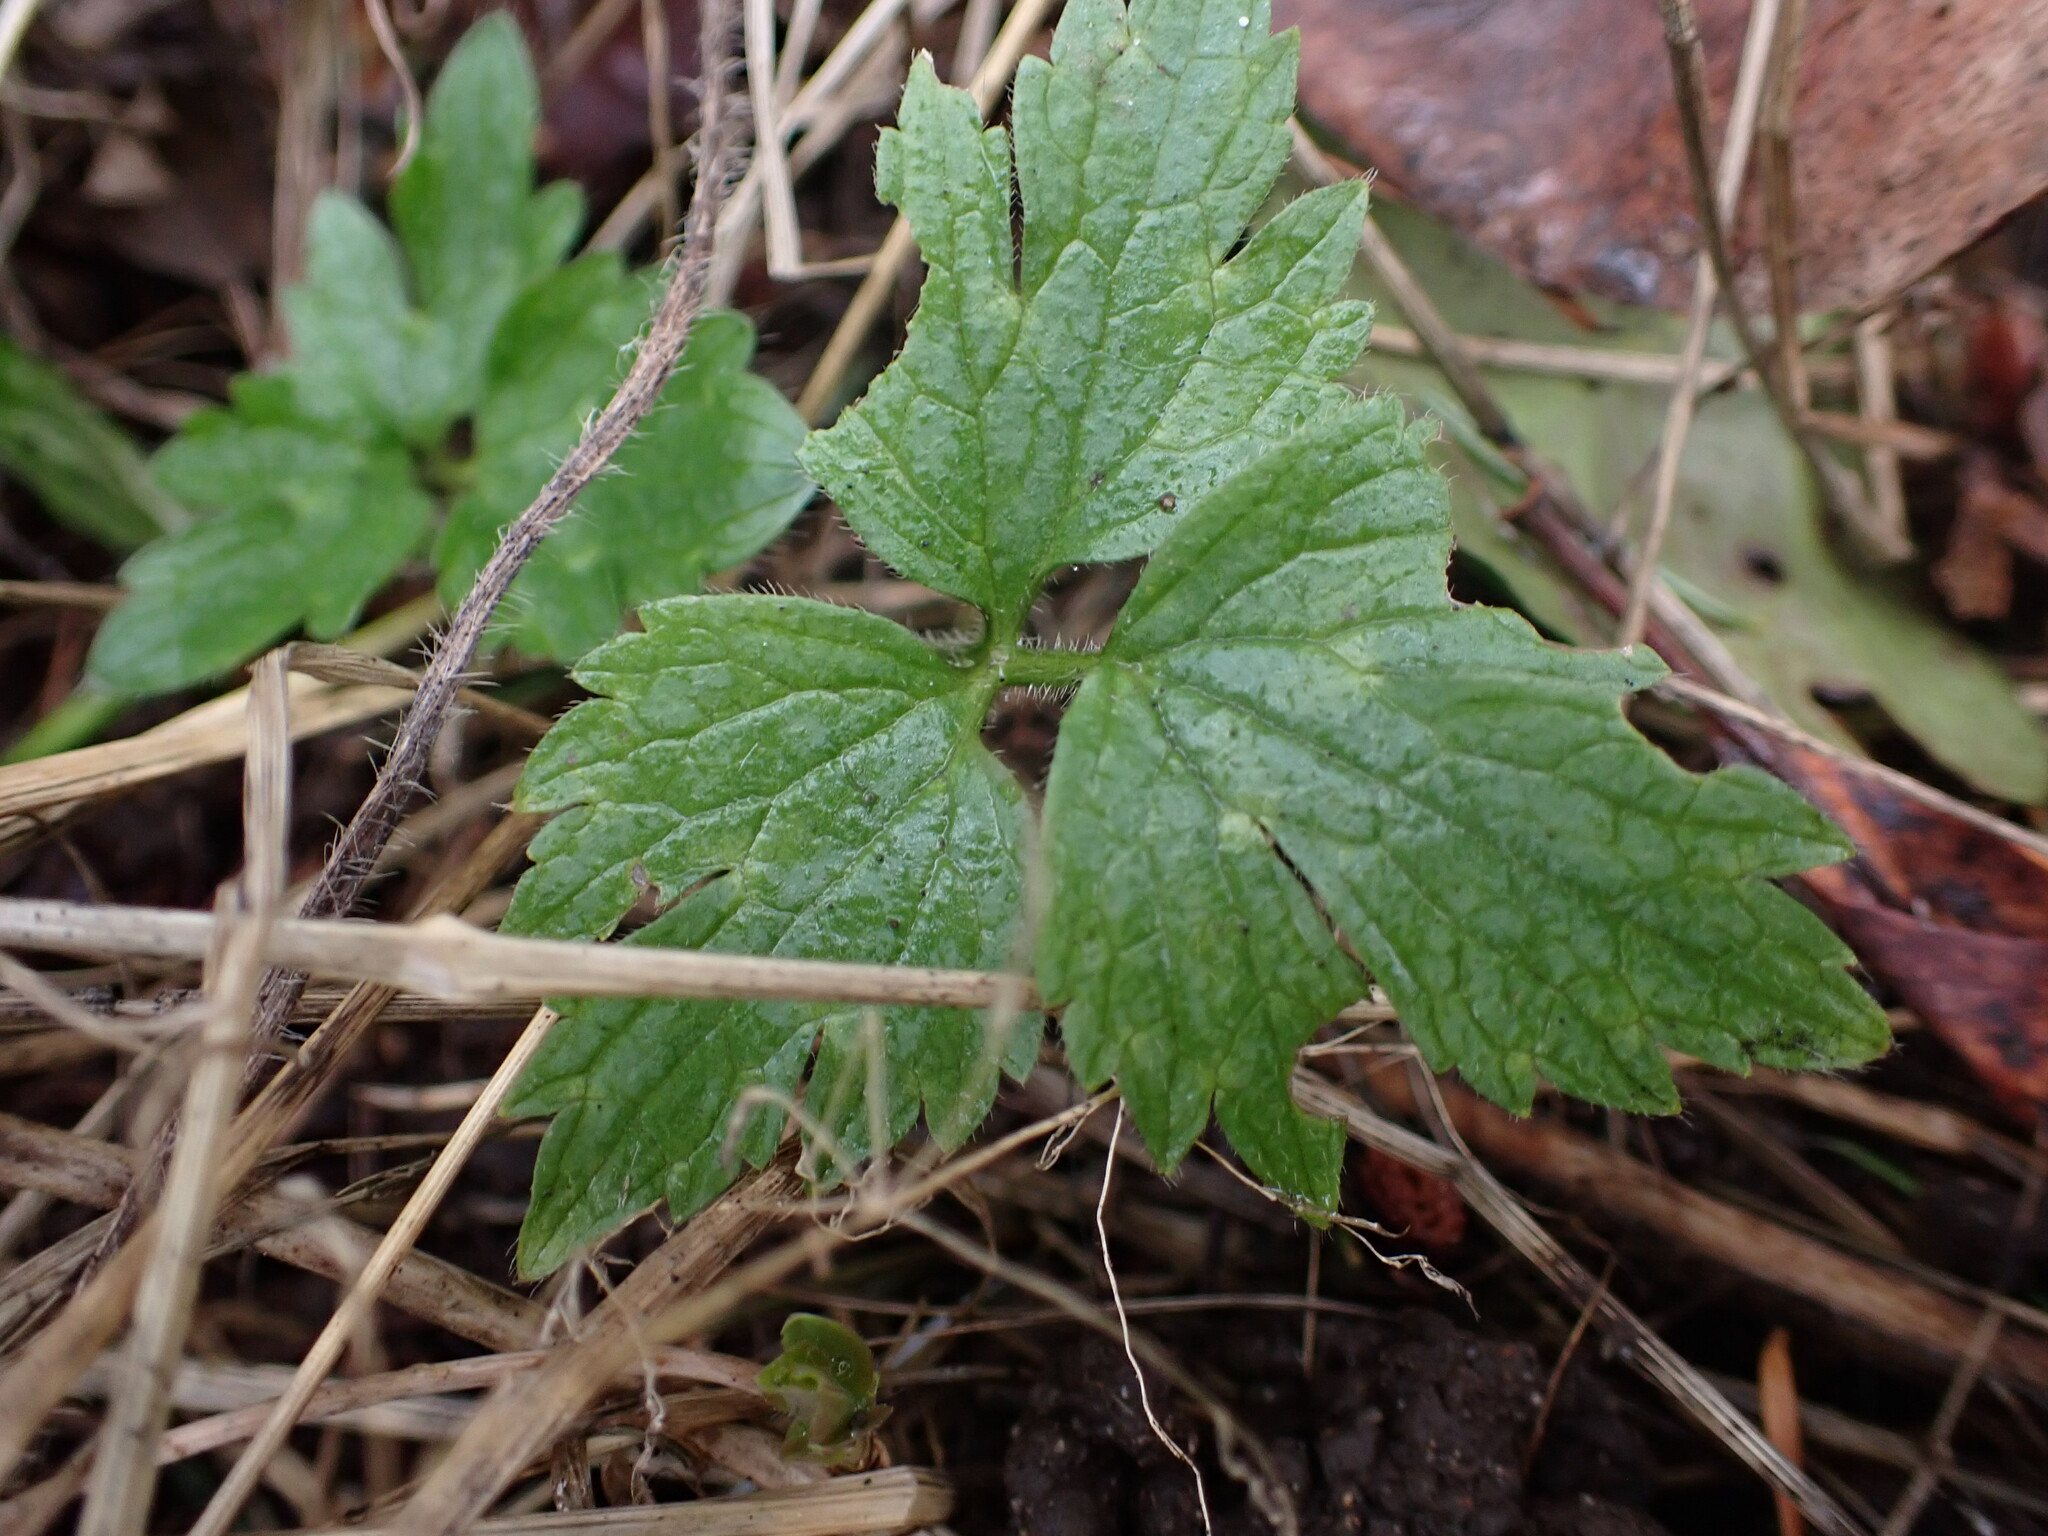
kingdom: Plantae
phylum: Tracheophyta
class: Magnoliopsida
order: Ranunculales
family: Ranunculaceae
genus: Ranunculus
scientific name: Ranunculus repens
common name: Creeping buttercup
